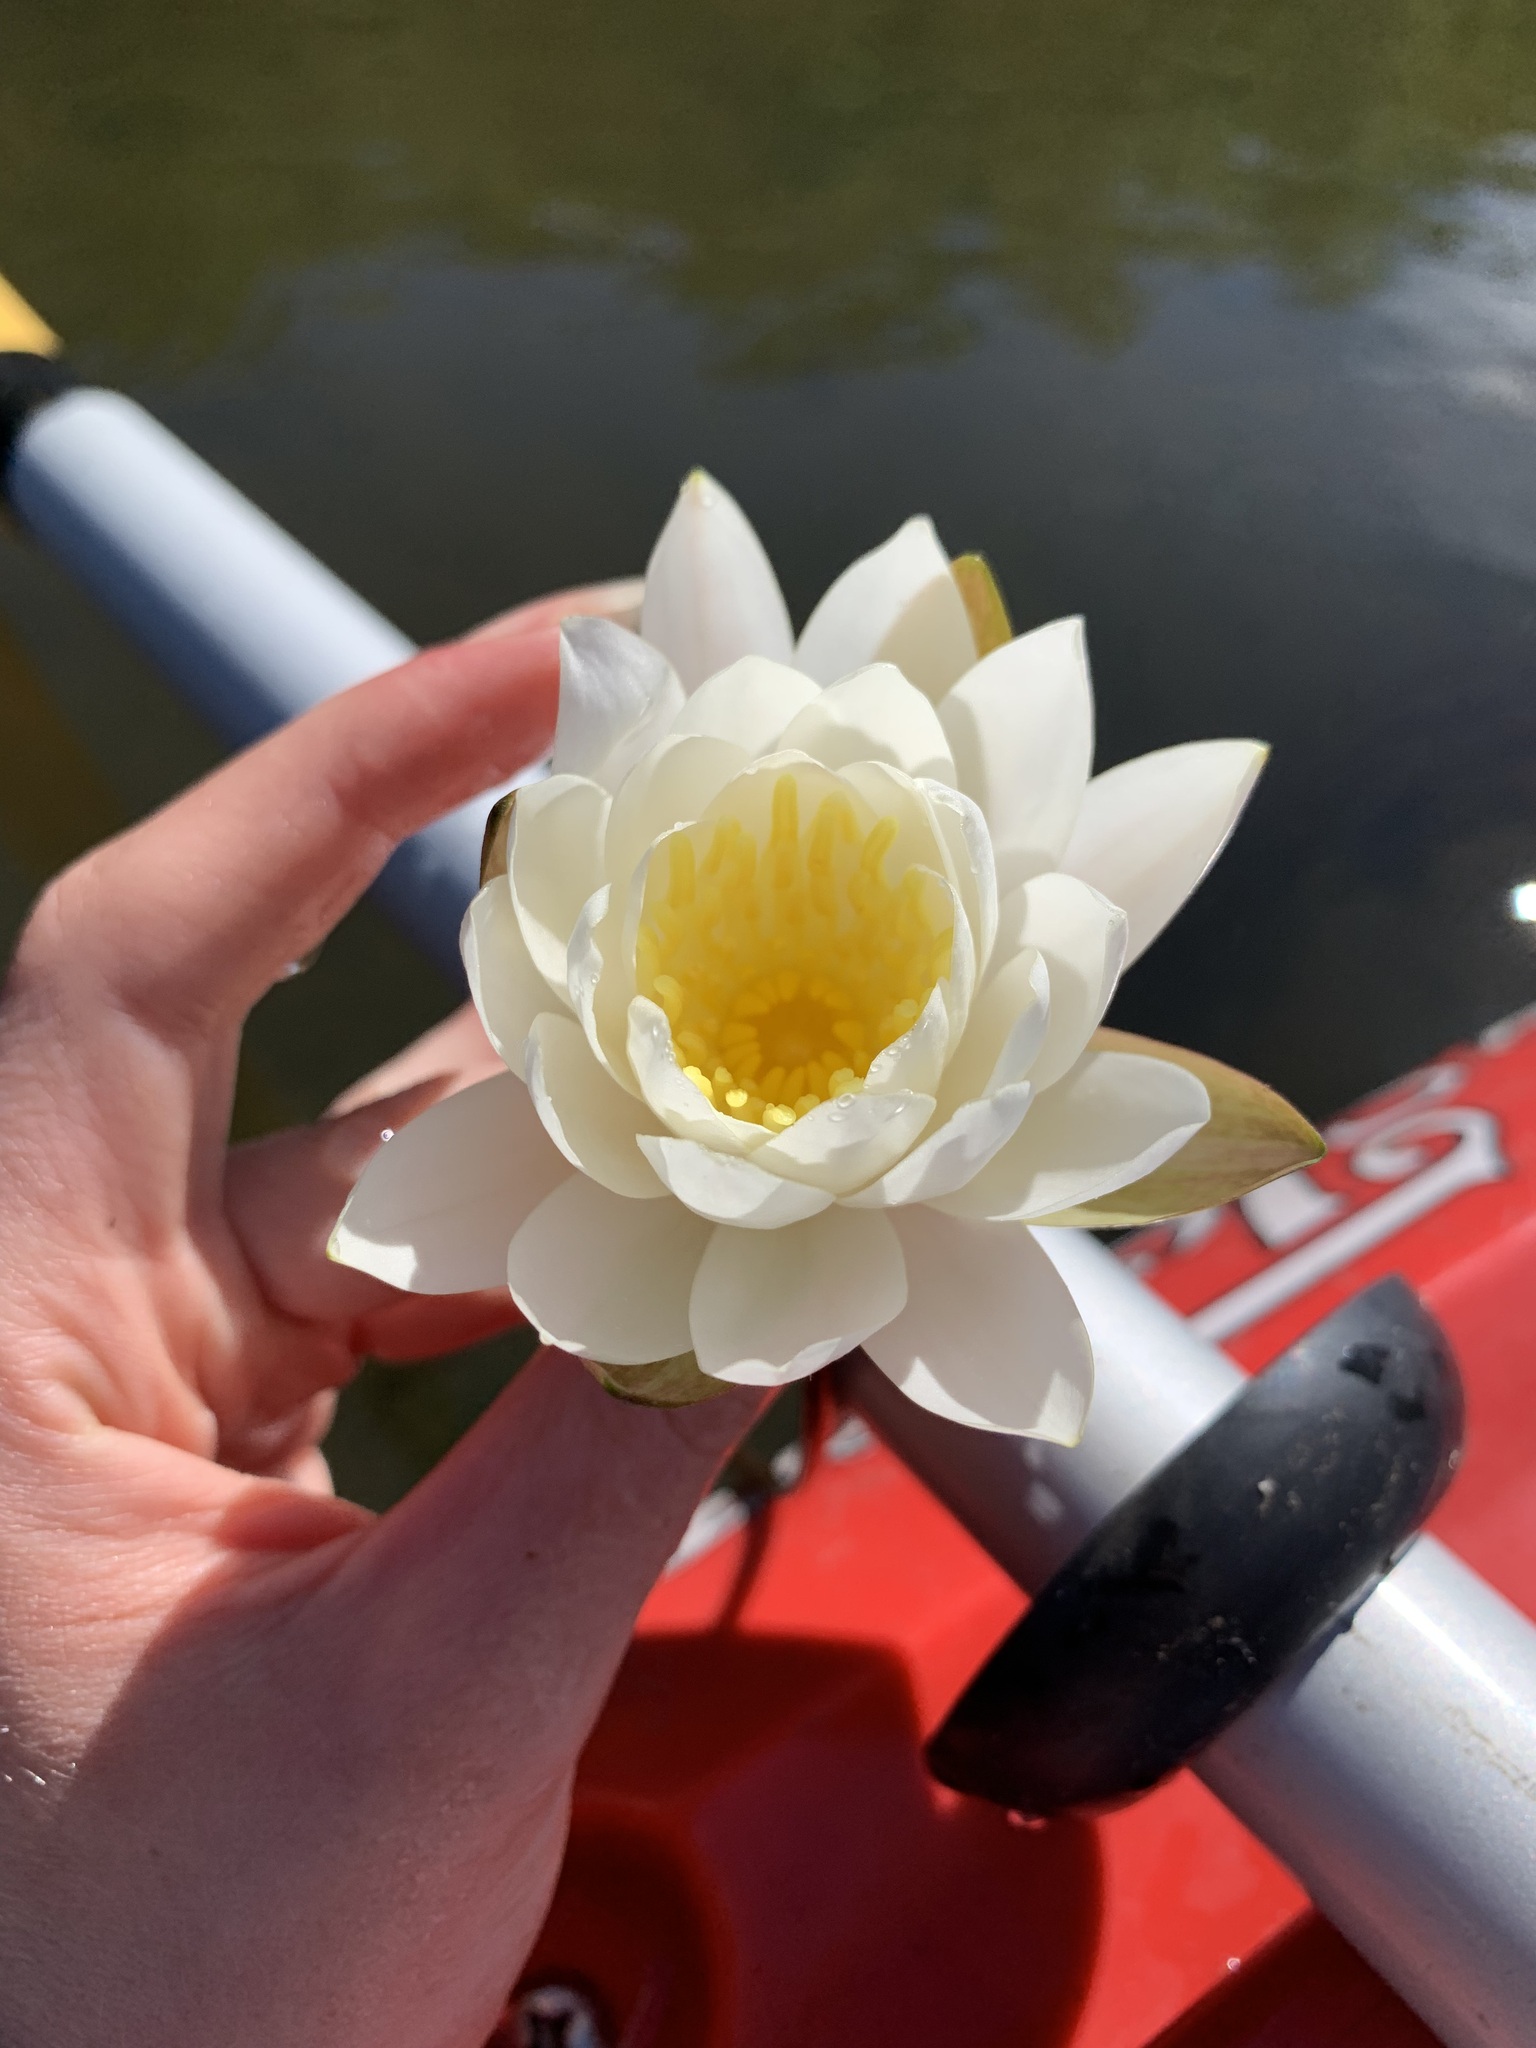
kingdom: Plantae
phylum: Tracheophyta
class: Magnoliopsida
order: Nymphaeales
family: Nymphaeaceae
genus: Nymphaea
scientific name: Nymphaea odorata
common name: Fragrant water-lily
